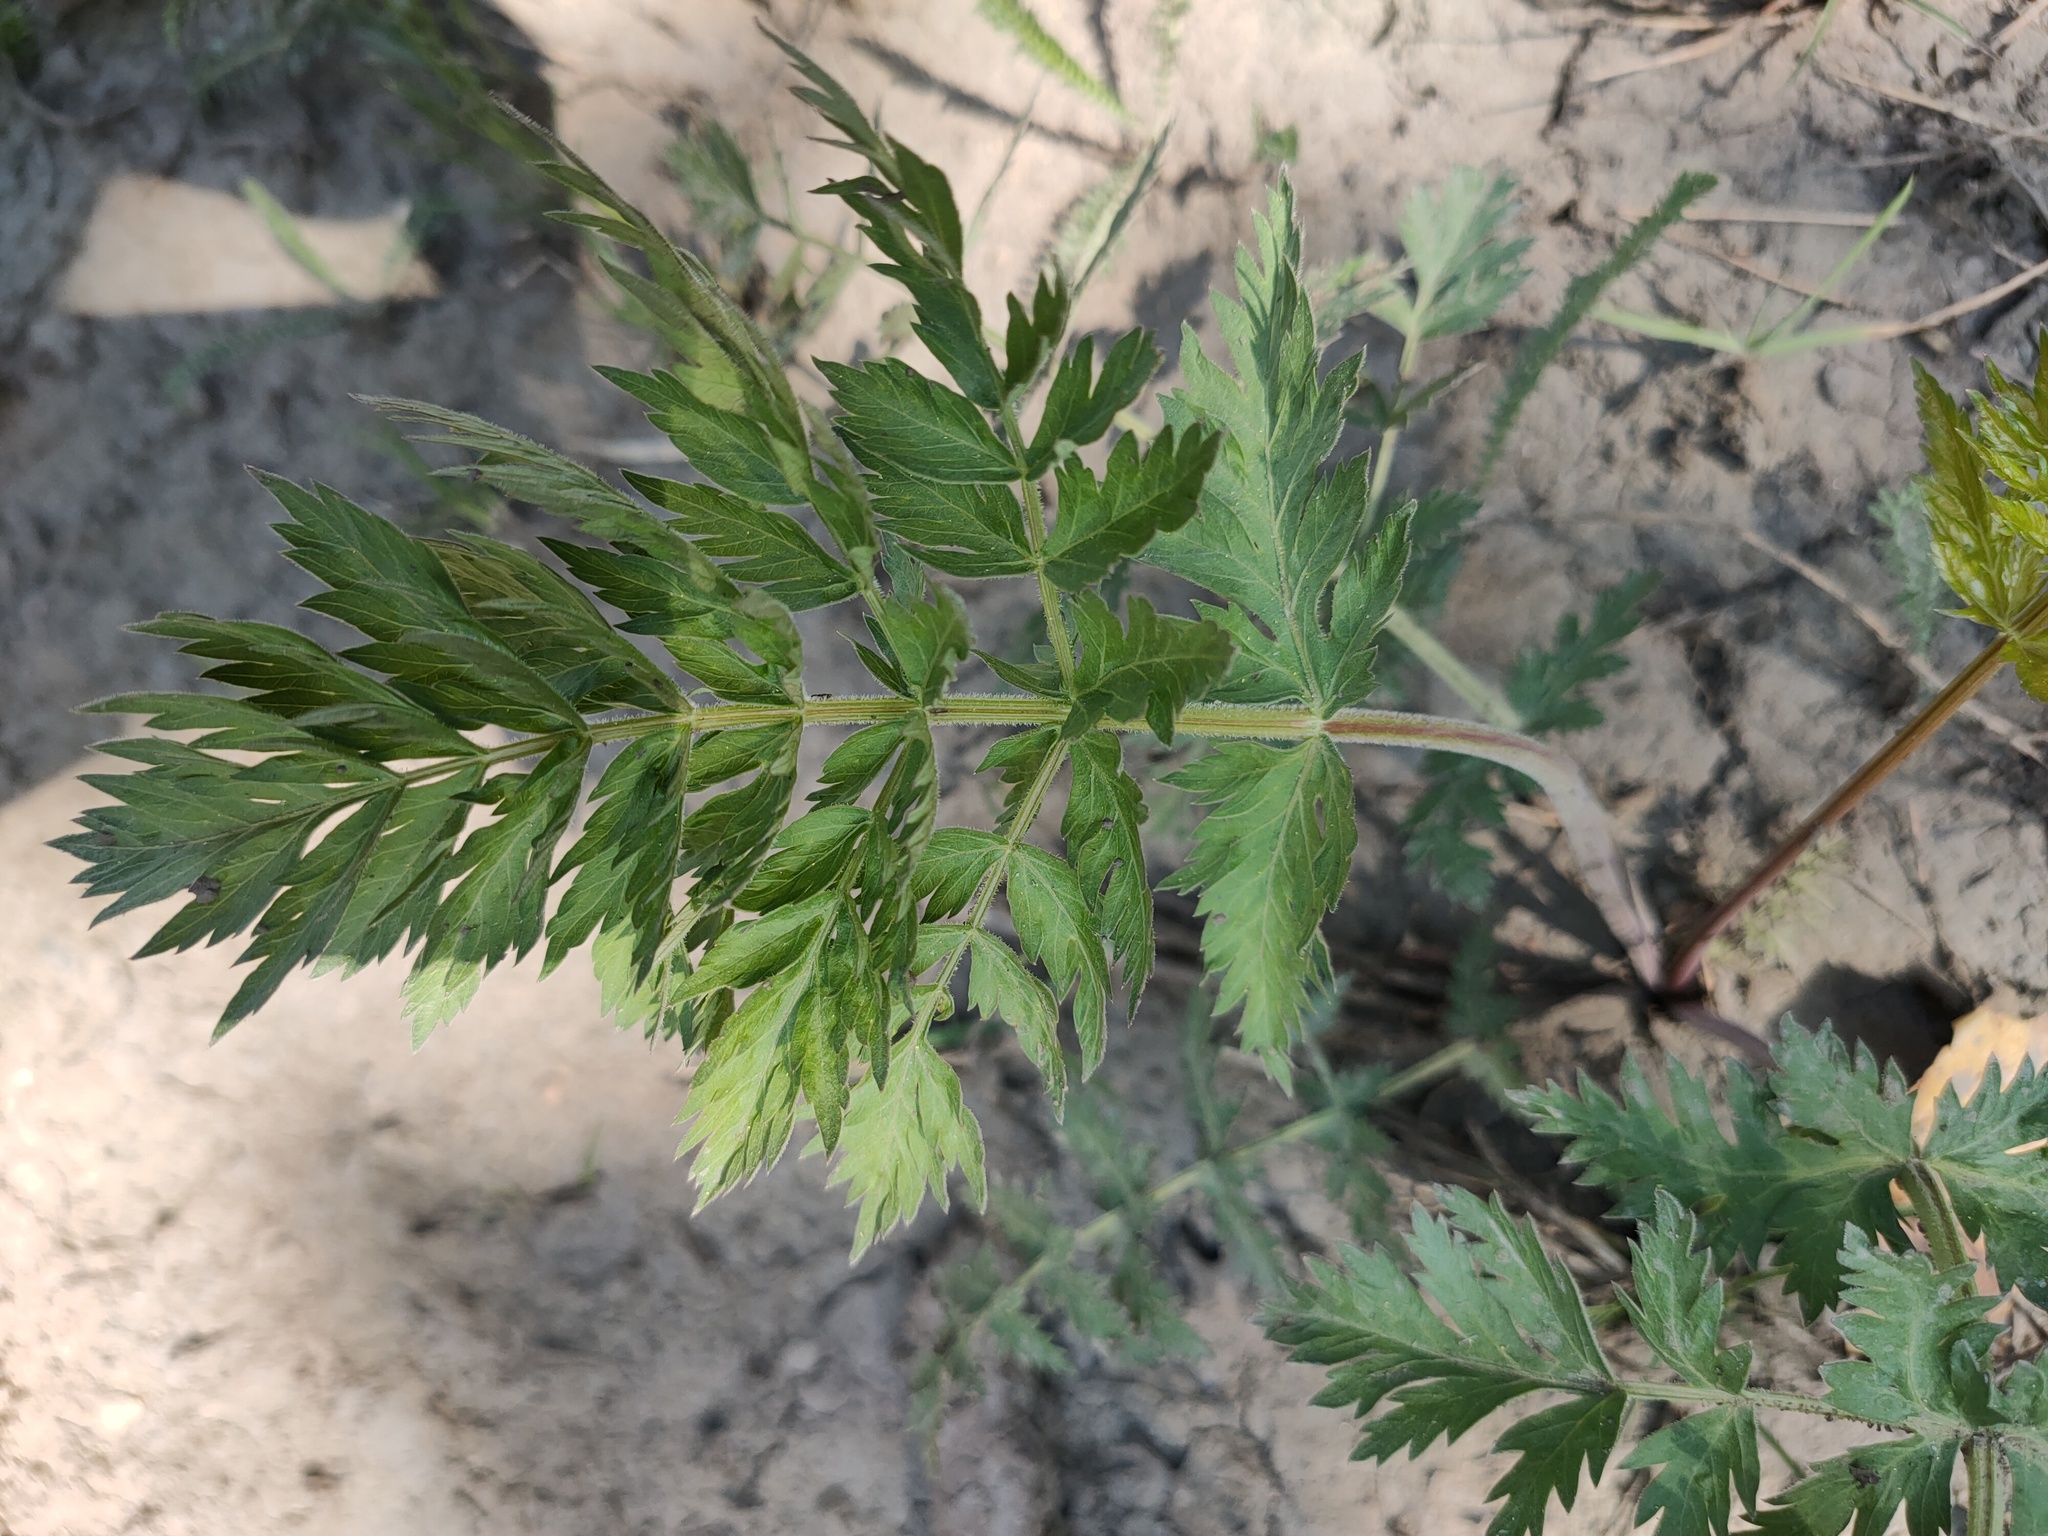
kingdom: Plantae
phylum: Tracheophyta
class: Magnoliopsida
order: Apiales
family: Apiaceae
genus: Seseli
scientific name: Seseli libanotis
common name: Mooncarrot
